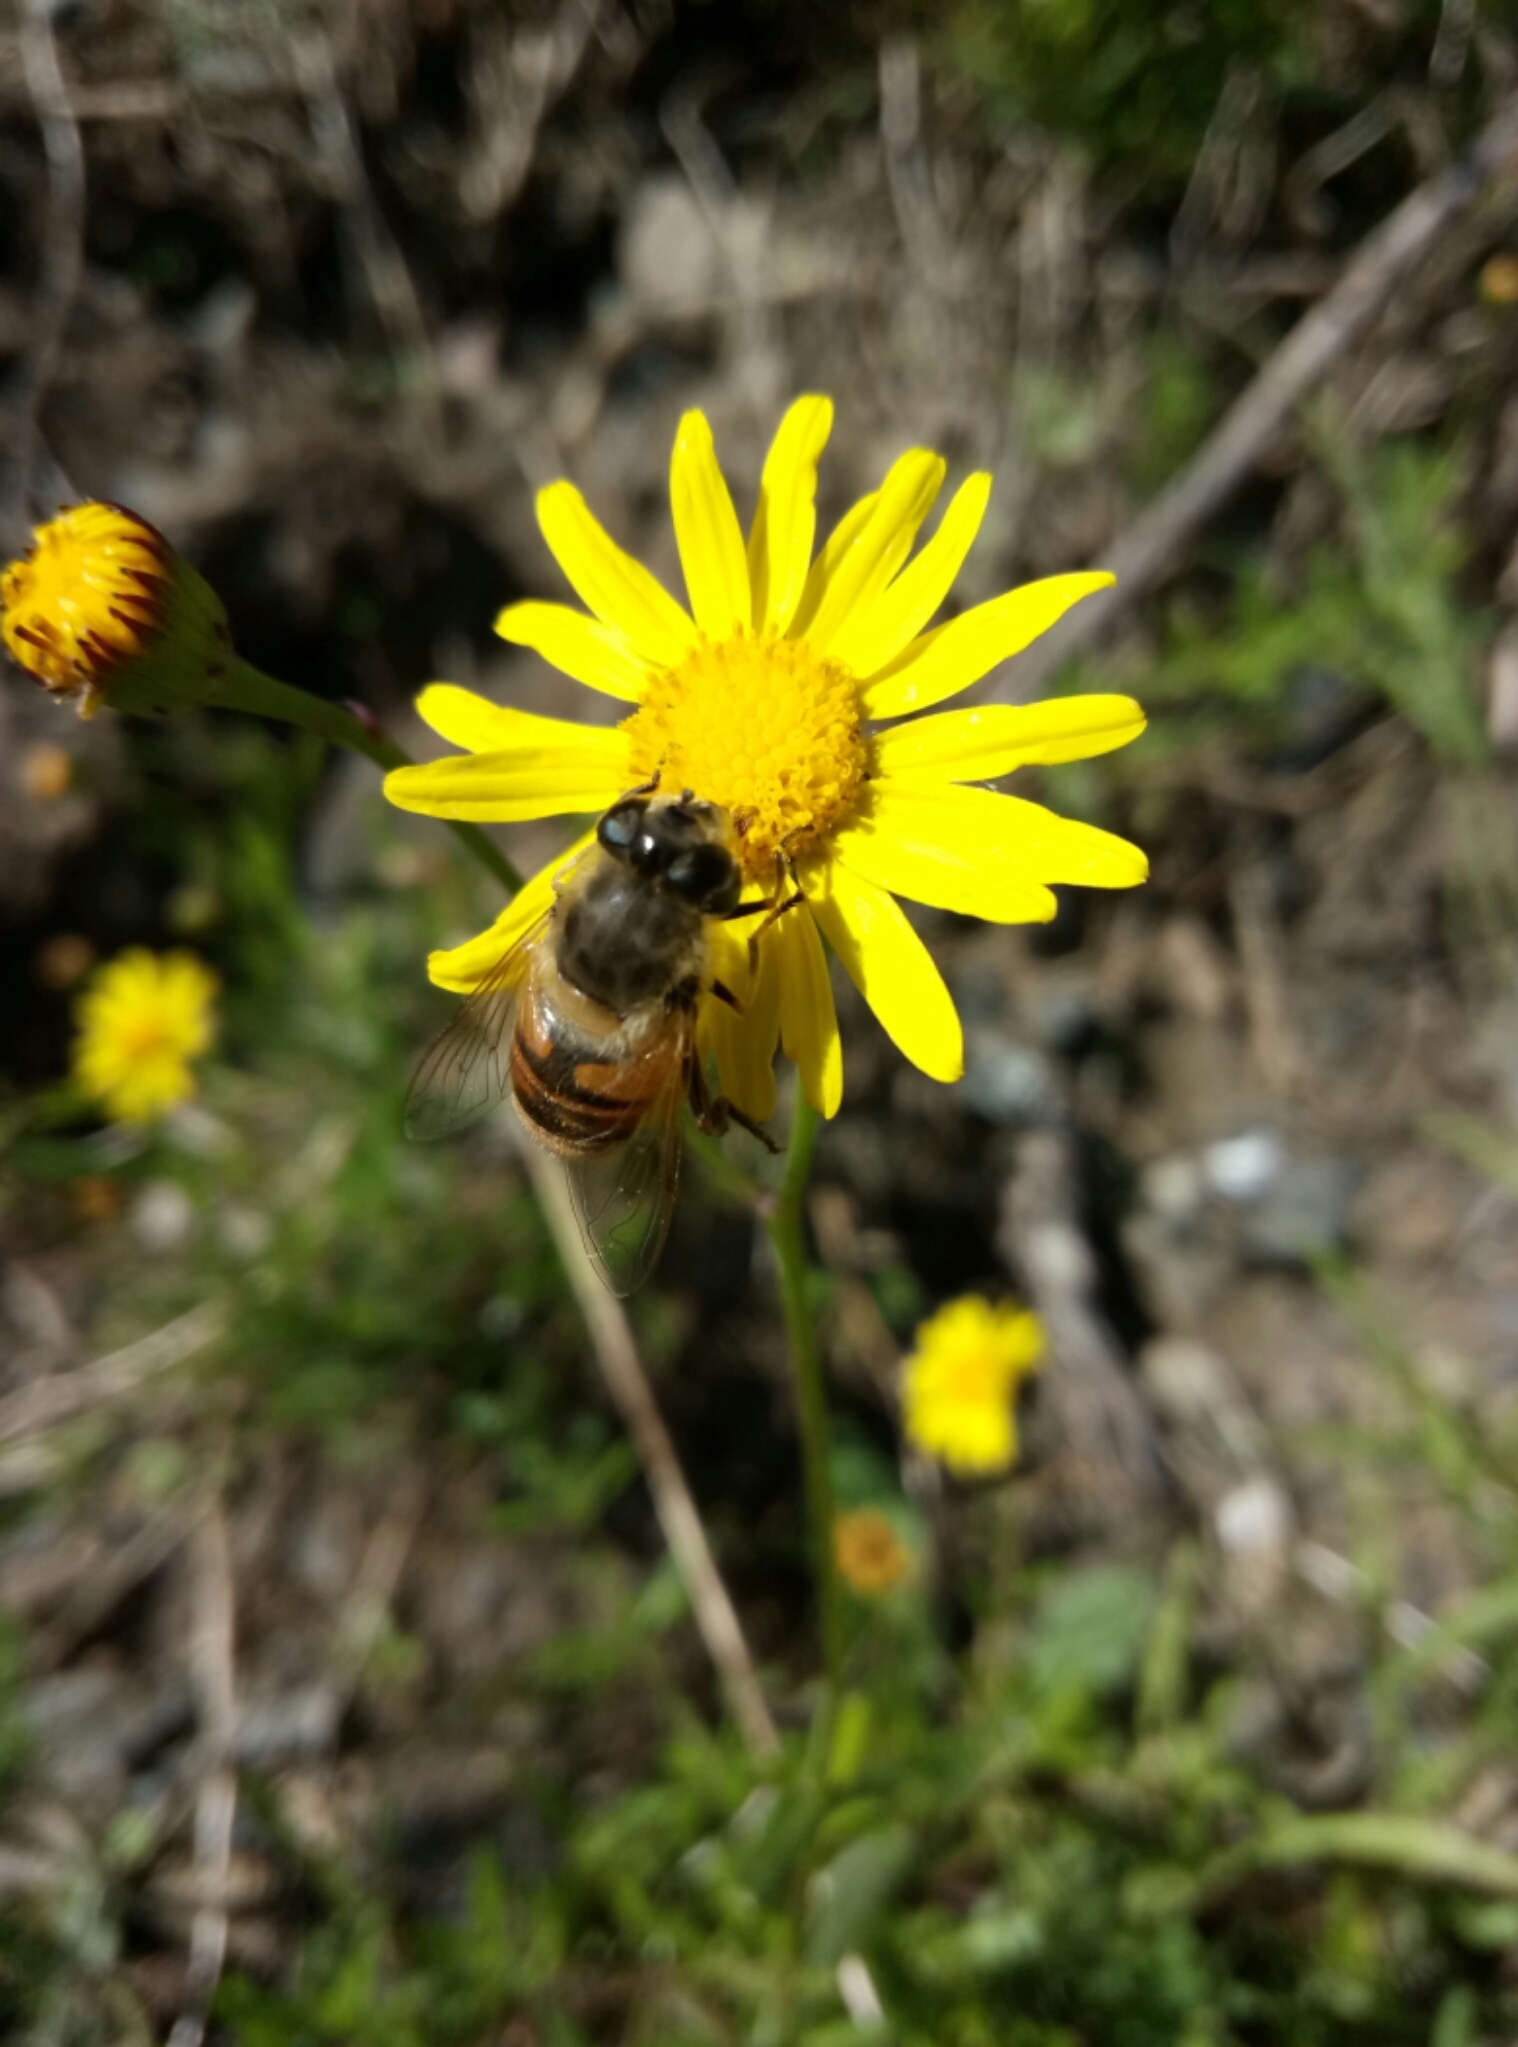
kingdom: Animalia
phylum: Arthropoda
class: Insecta
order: Diptera
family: Syrphidae
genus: Eristalis
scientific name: Eristalis tenax
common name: Drone fly
